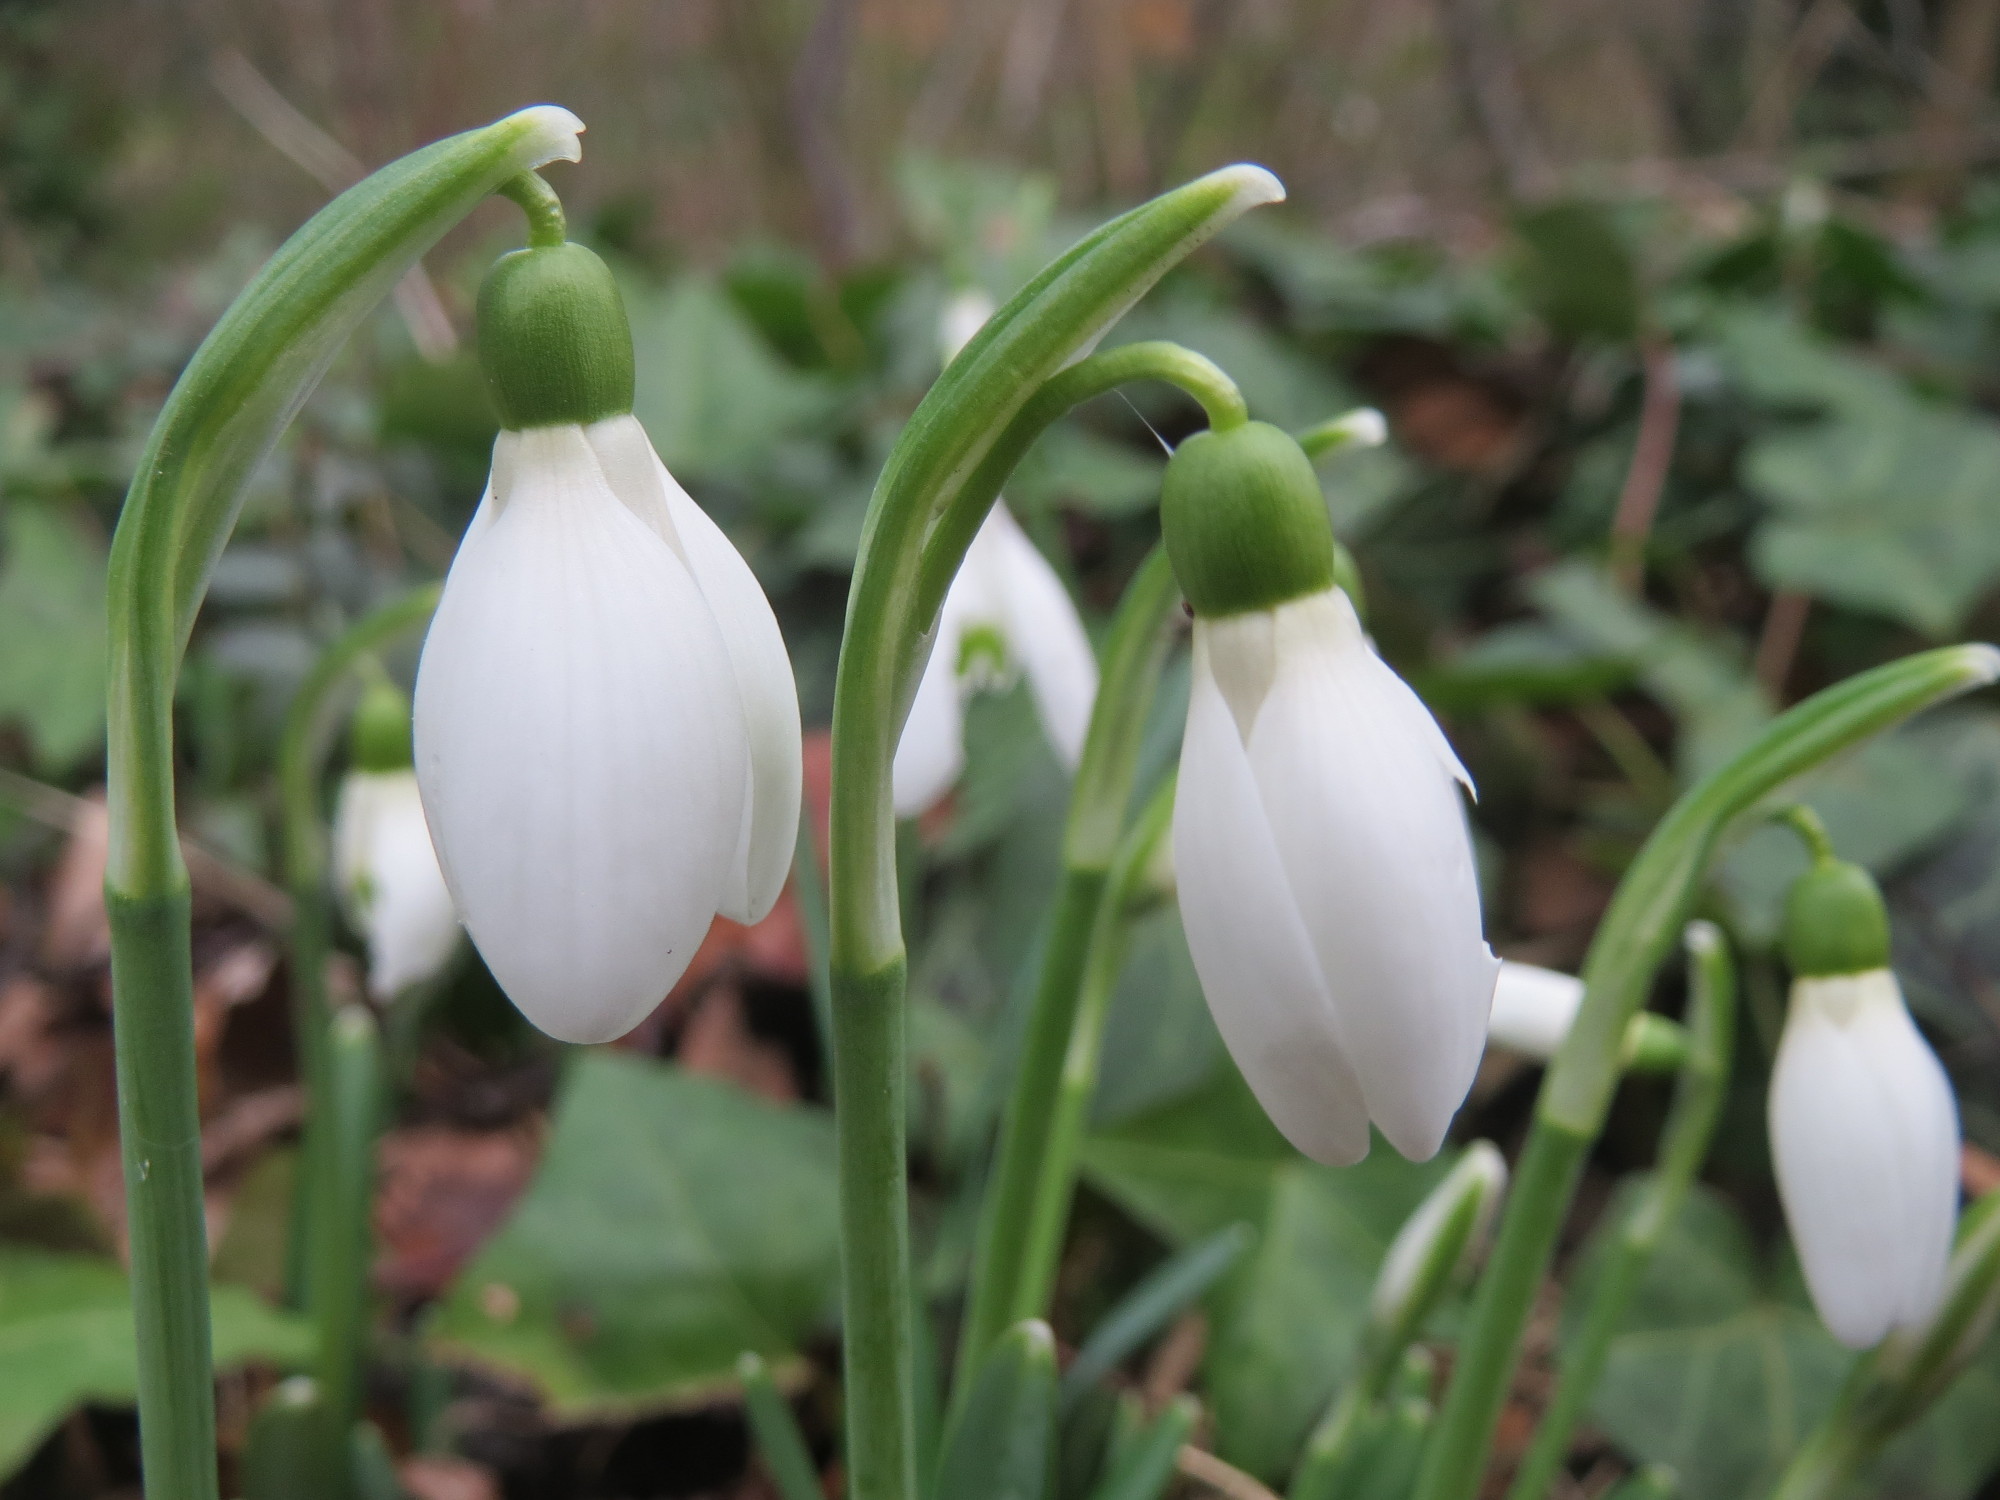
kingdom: Plantae
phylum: Tracheophyta
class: Liliopsida
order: Asparagales
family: Amaryllidaceae
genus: Galanthus
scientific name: Galanthus nivalis
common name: Snowdrop
